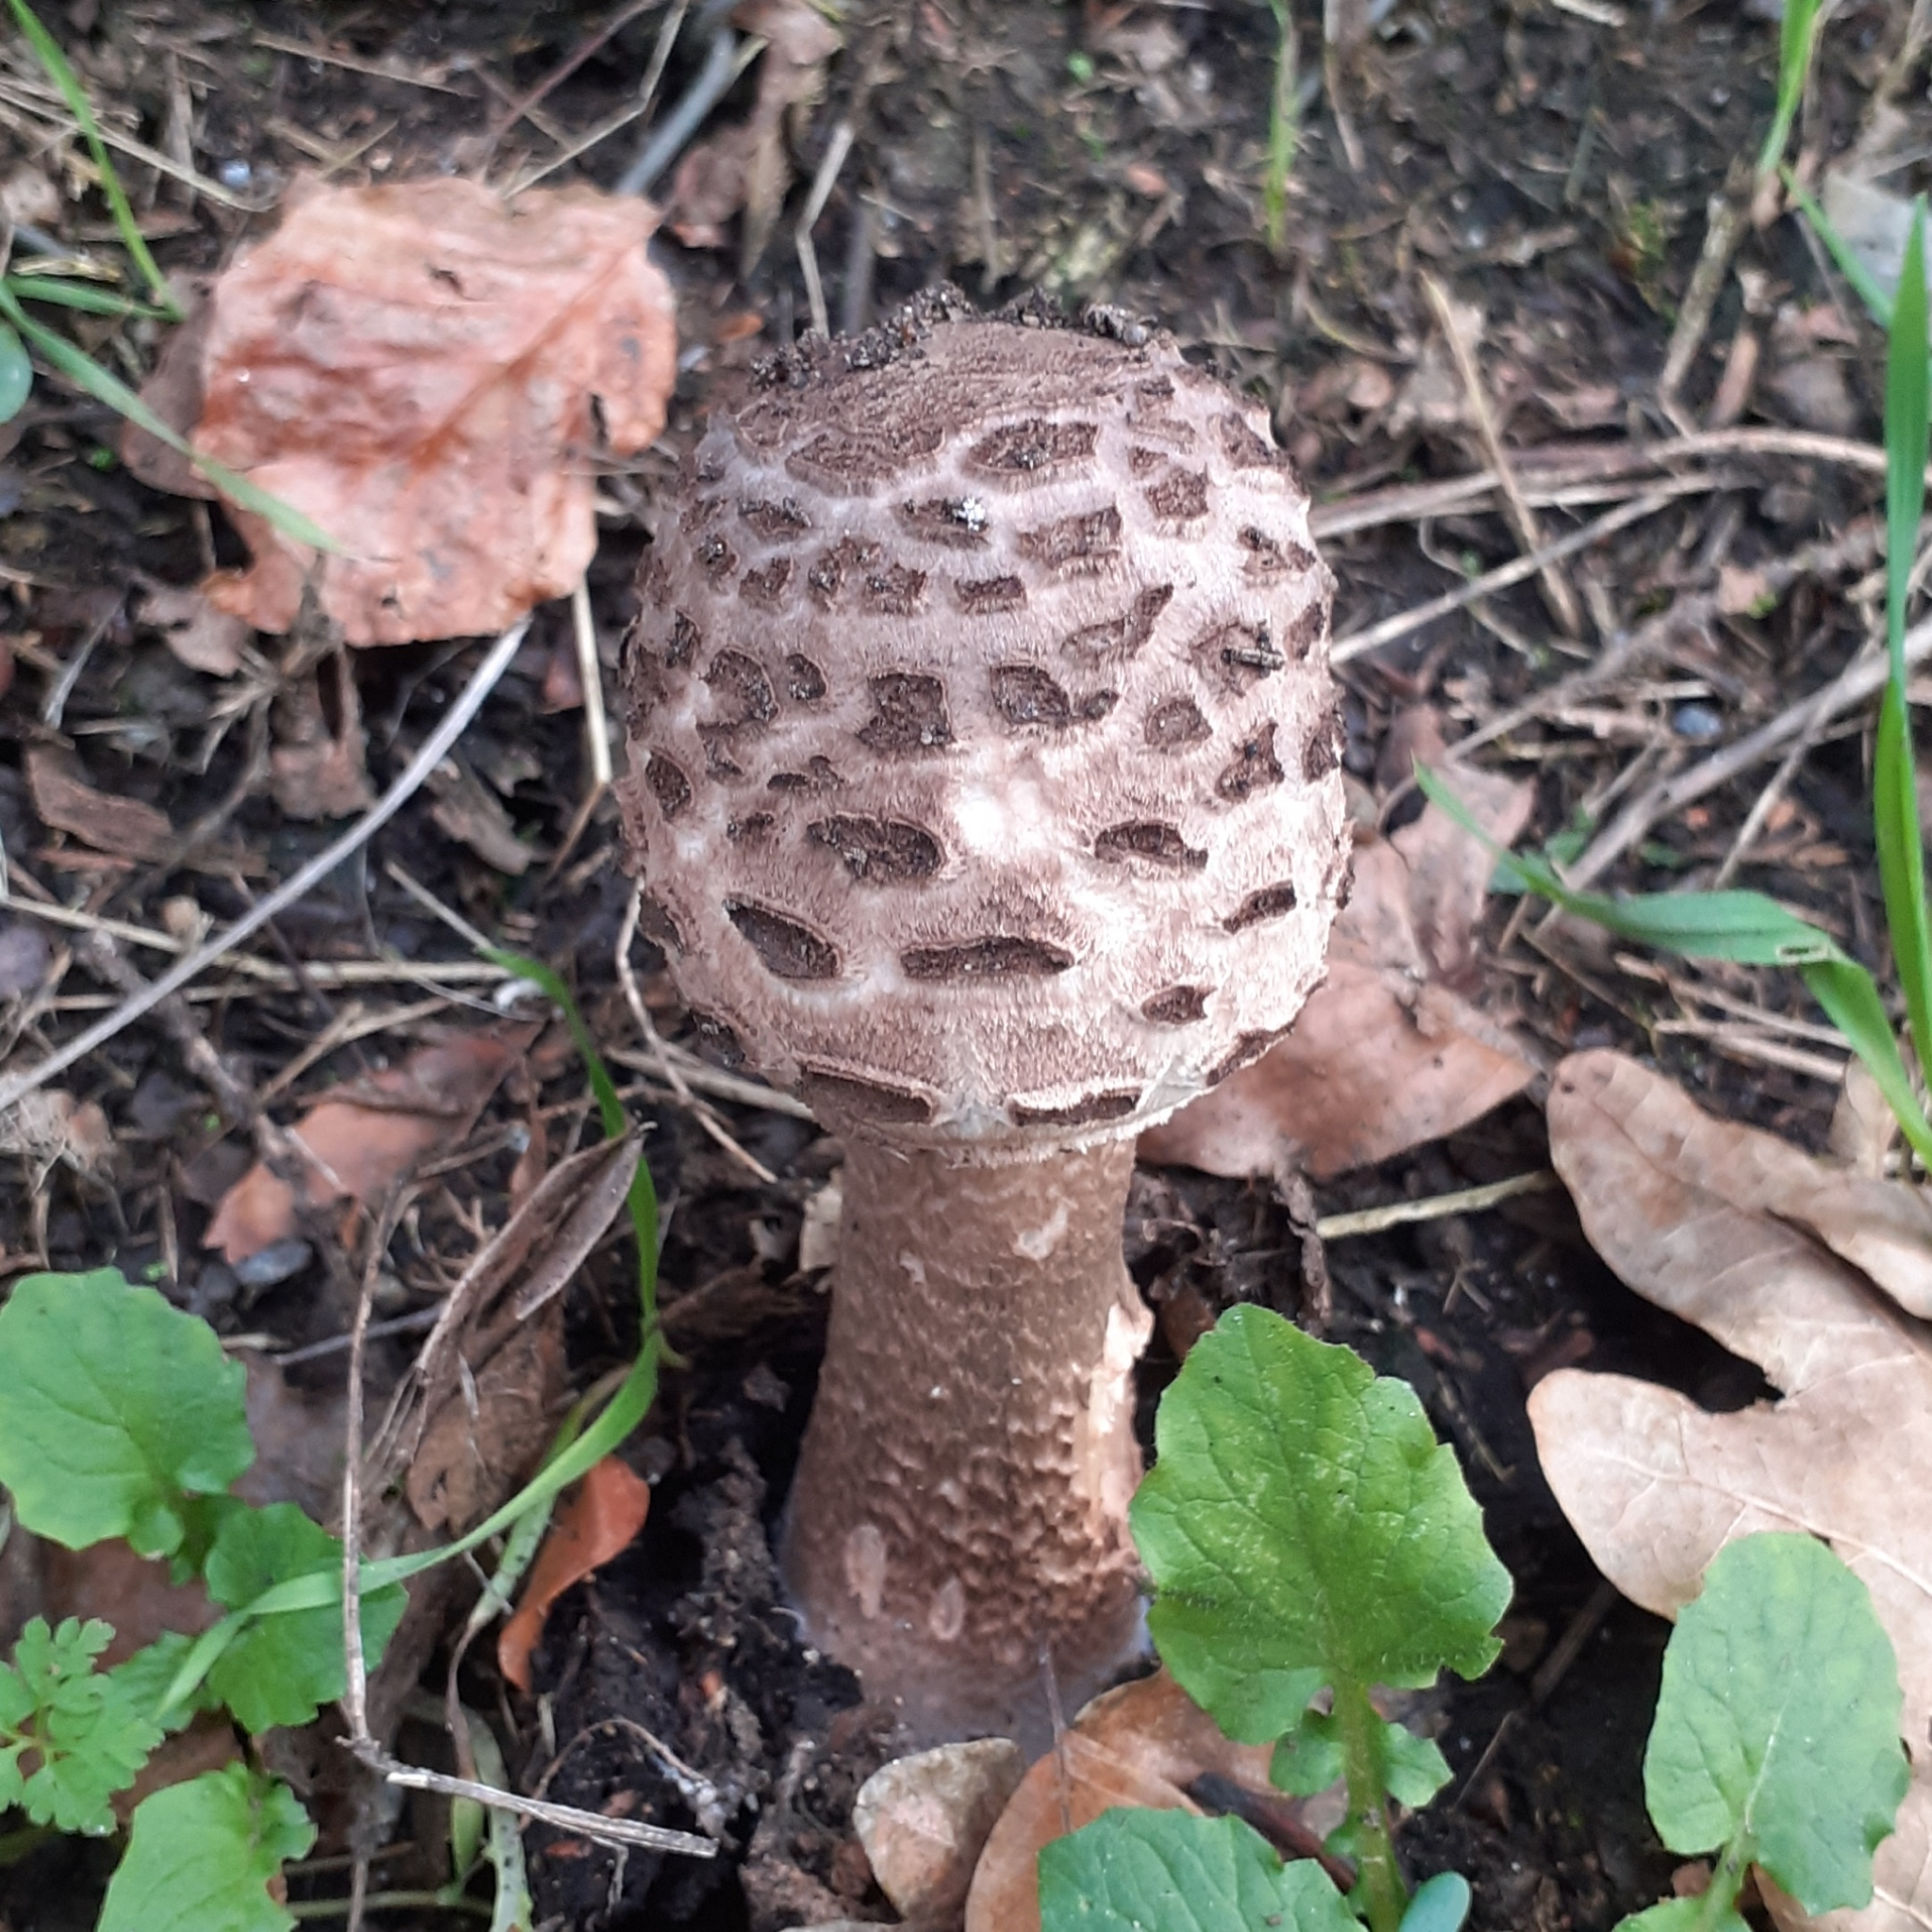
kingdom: Fungi
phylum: Basidiomycota
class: Agaricomycetes
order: Agaricales
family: Agaricaceae
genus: Macrolepiota
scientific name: Macrolepiota procera
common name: Parasol
